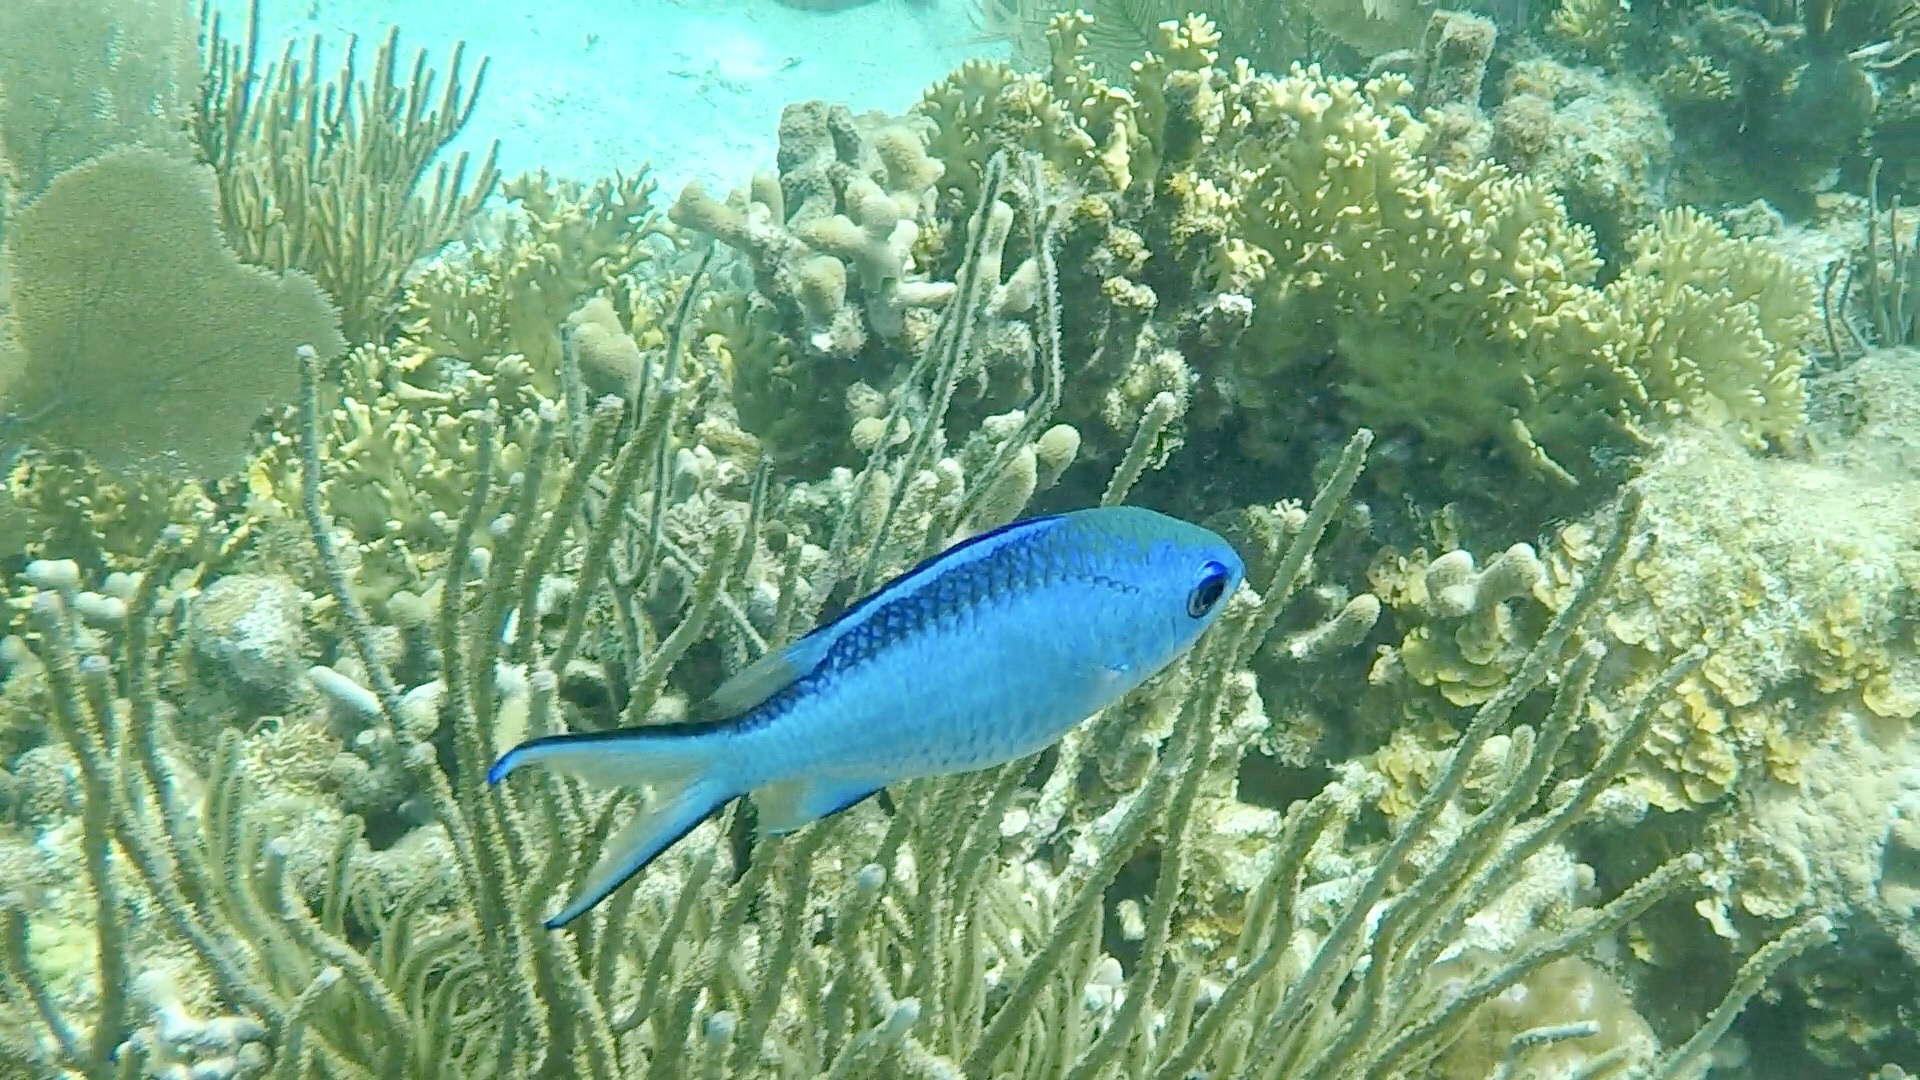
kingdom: Animalia
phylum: Chordata
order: Perciformes
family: Pomacentridae
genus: Chromis
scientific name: Chromis cyanea
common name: Blue chromis
